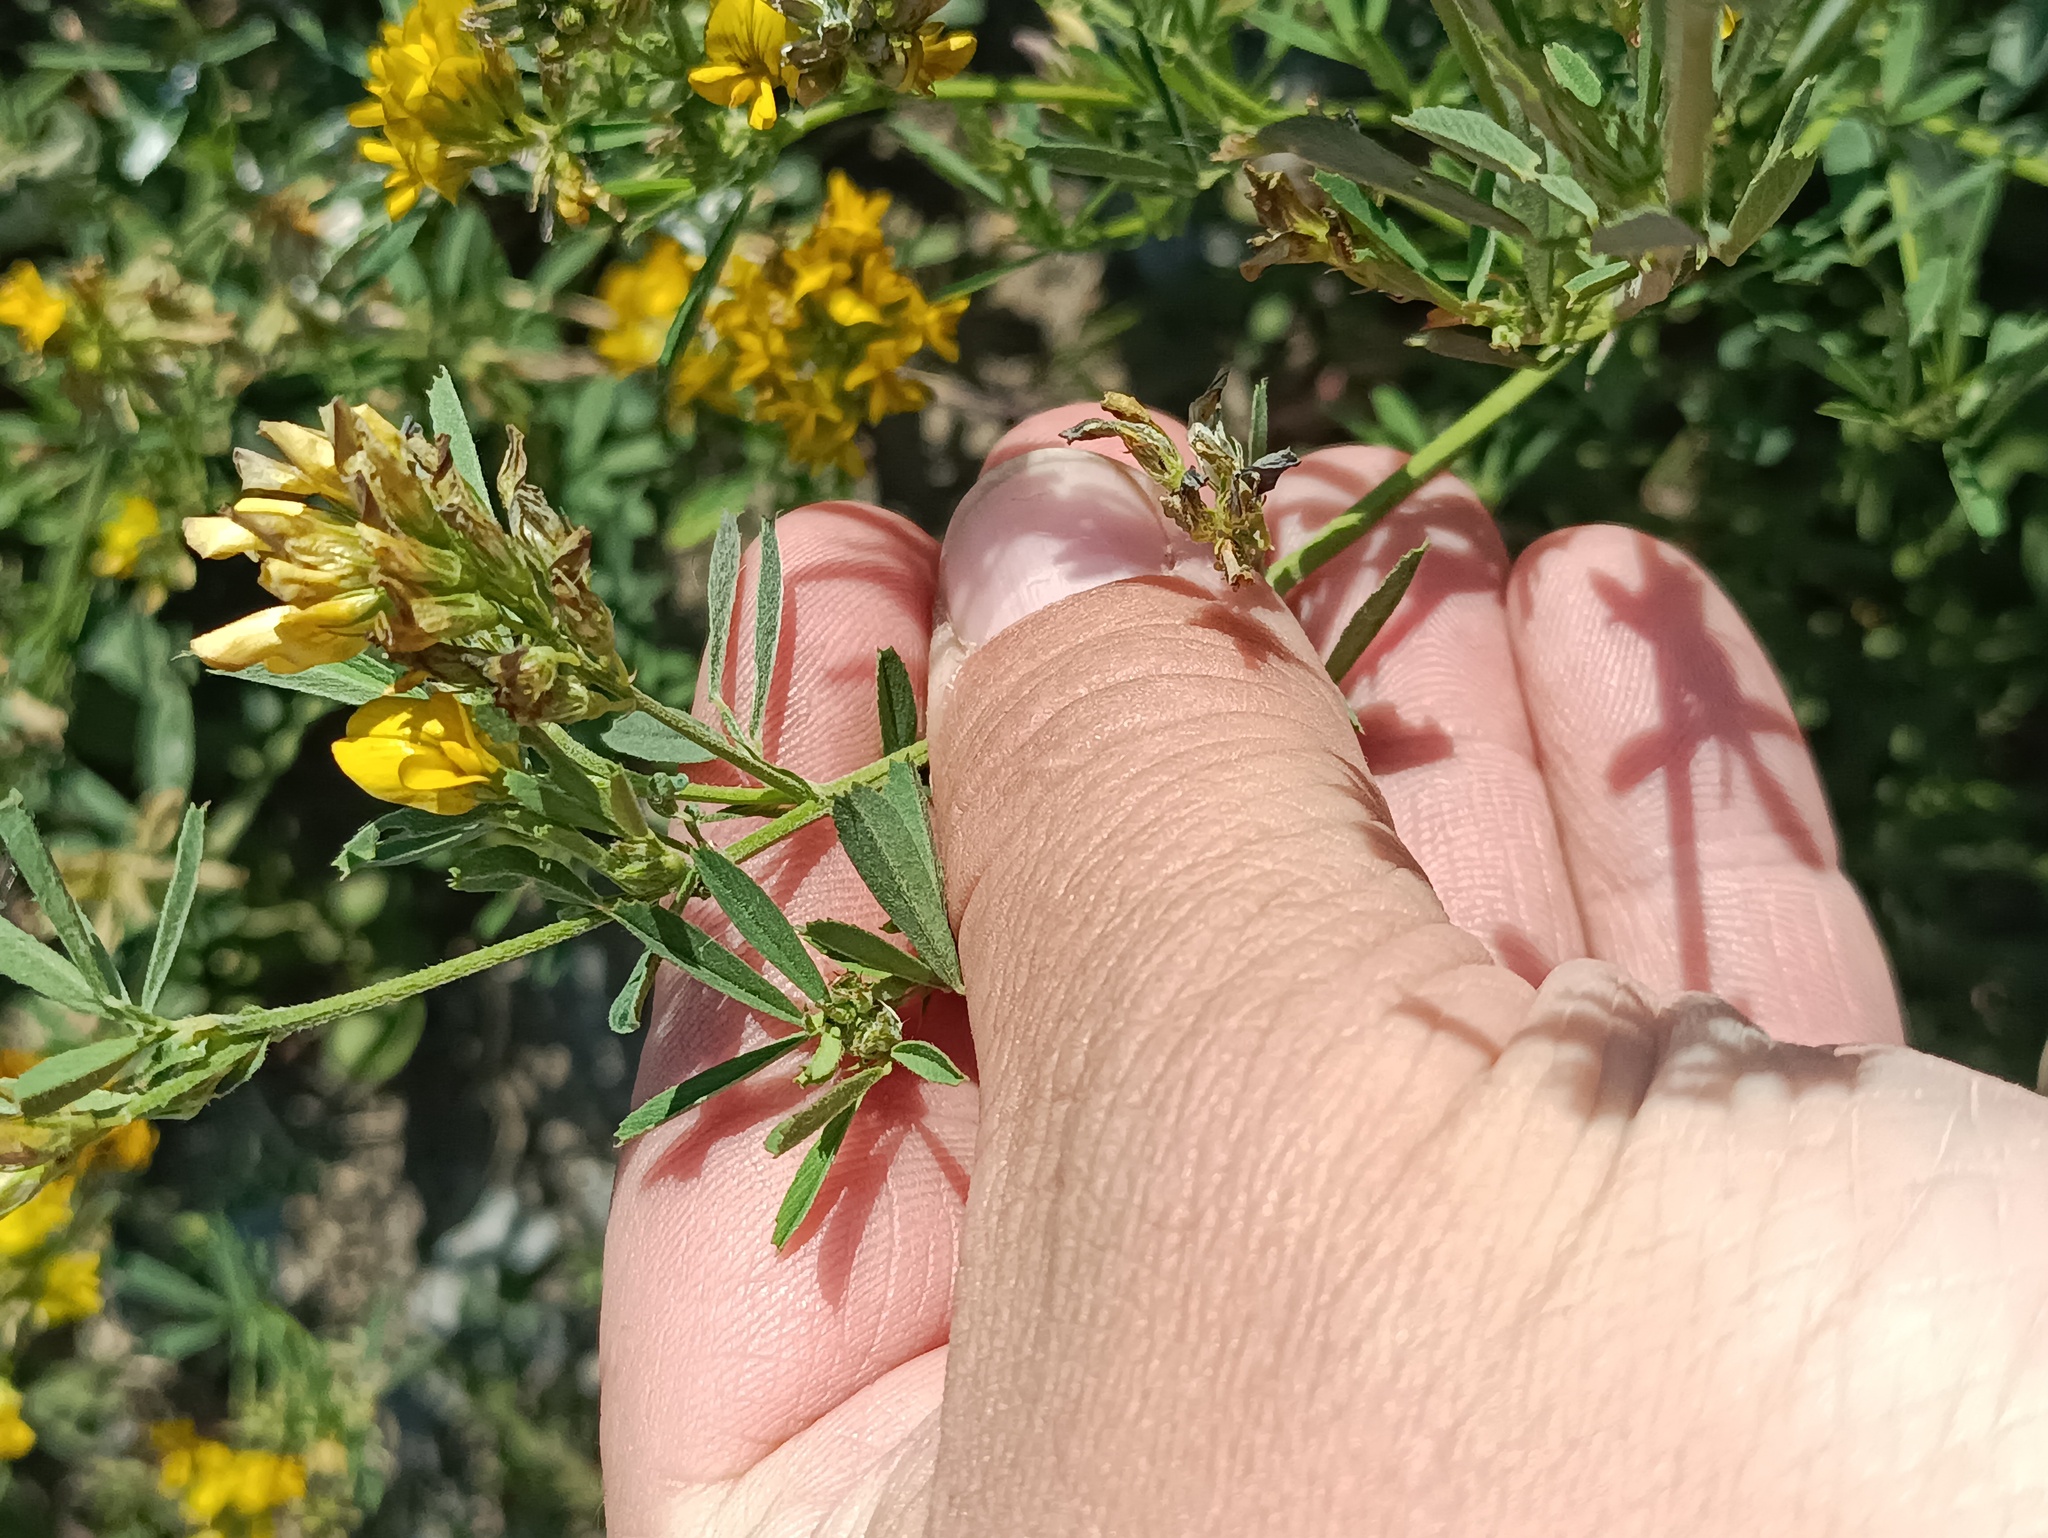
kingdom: Plantae
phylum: Tracheophyta
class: Magnoliopsida
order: Fabales
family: Fabaceae
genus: Medicago
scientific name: Medicago varia
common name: Sand lucerne
